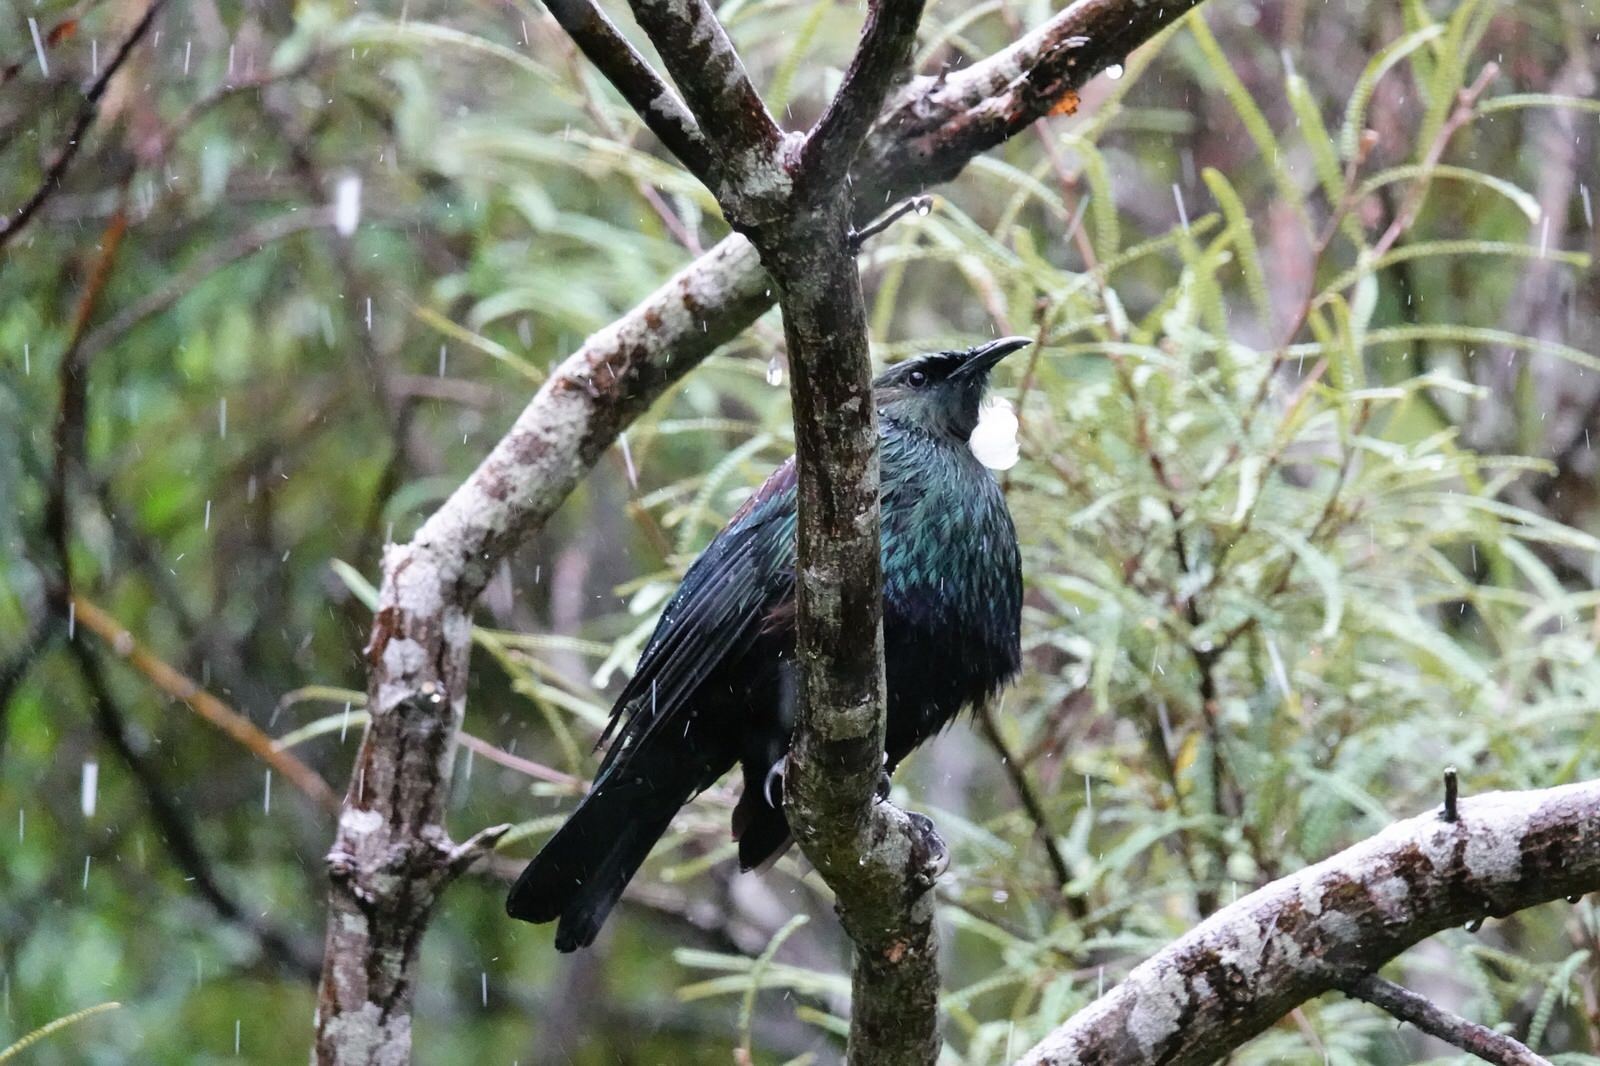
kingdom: Animalia
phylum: Chordata
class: Aves
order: Passeriformes
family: Meliphagidae
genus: Prosthemadera
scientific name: Prosthemadera novaeseelandiae
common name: Tui
